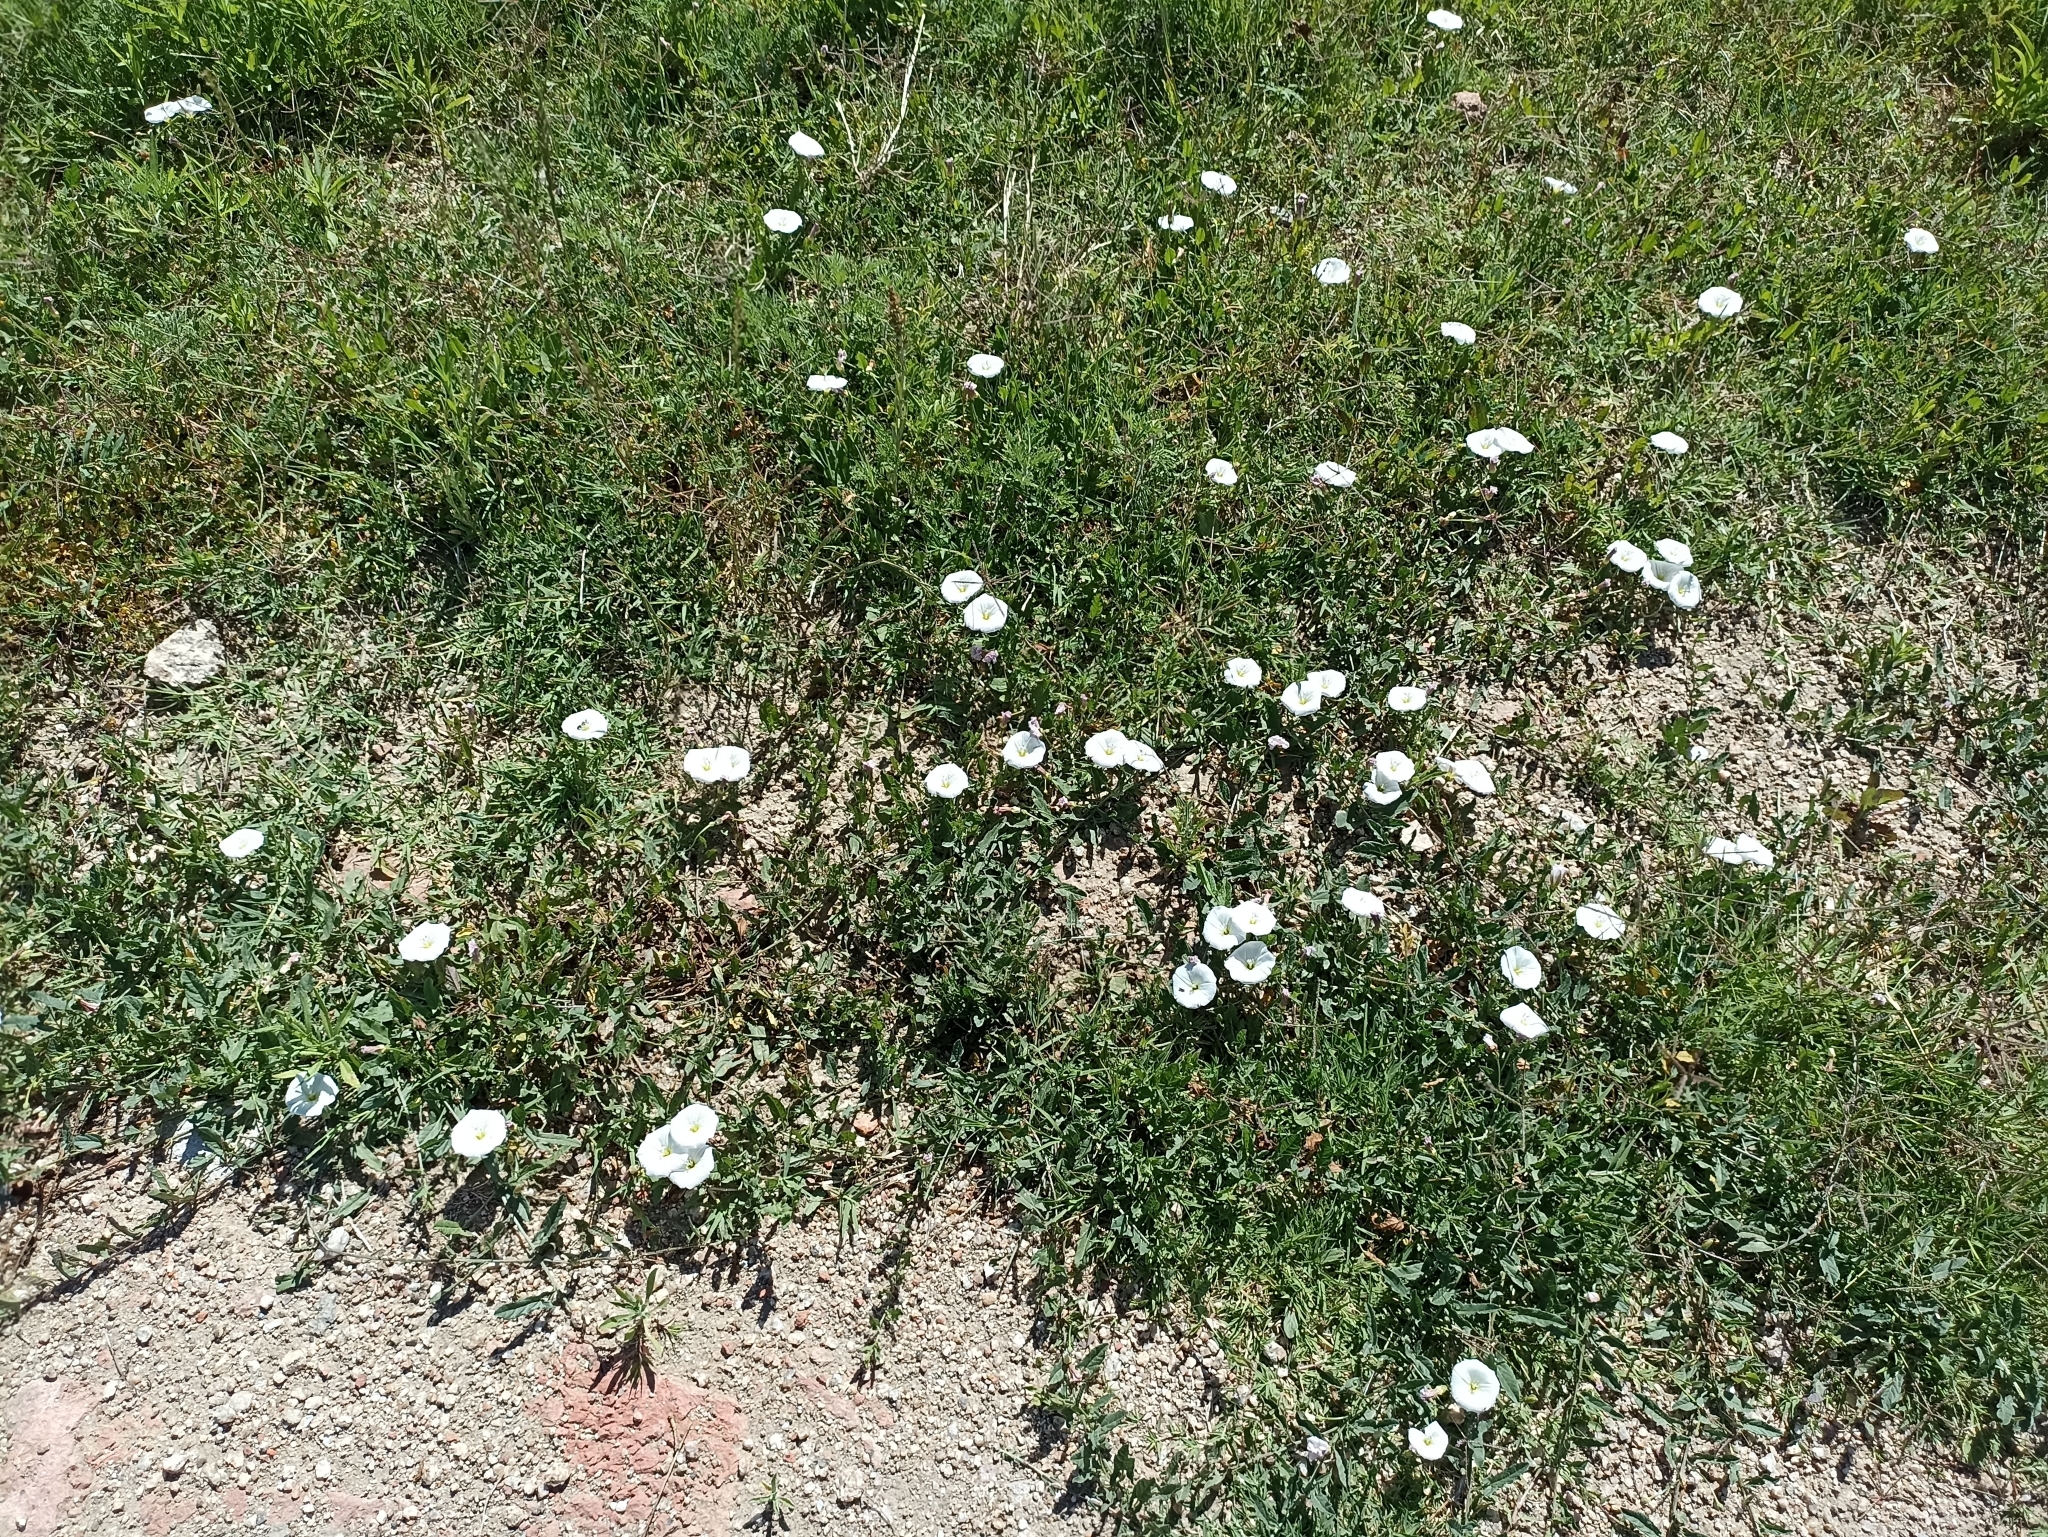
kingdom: Plantae
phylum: Tracheophyta
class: Magnoliopsida
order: Solanales
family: Convolvulaceae
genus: Convolvulus
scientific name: Convolvulus arvensis
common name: Field bindweed
